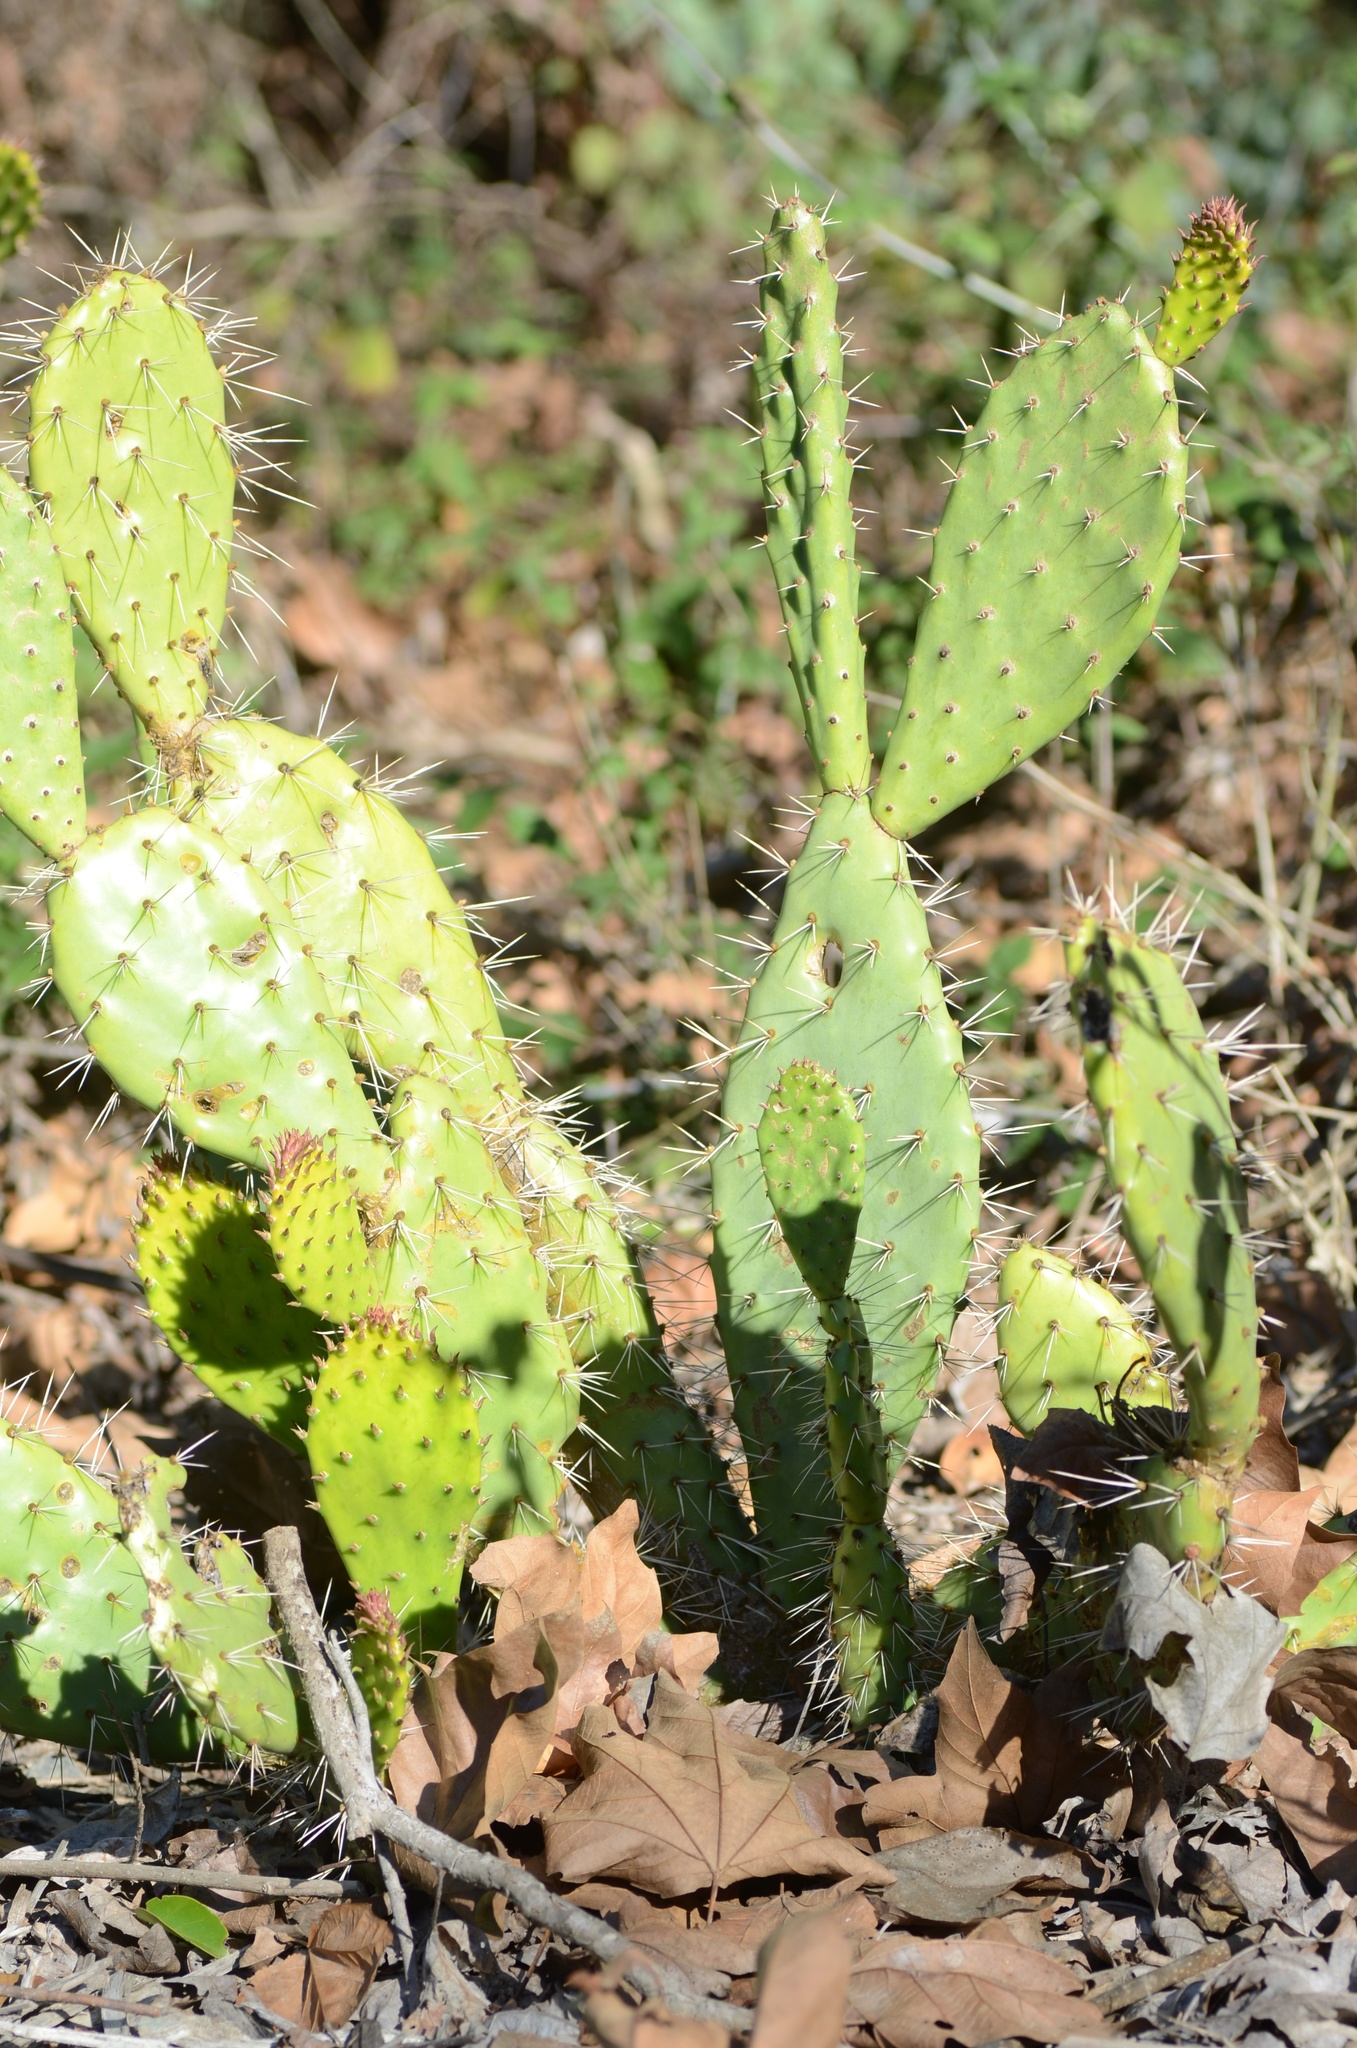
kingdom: Plantae
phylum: Tracheophyta
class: Magnoliopsida
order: Caryophyllales
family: Cactaceae
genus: Opuntia
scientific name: Opuntia littoralis
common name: Coastal prickly-pear
